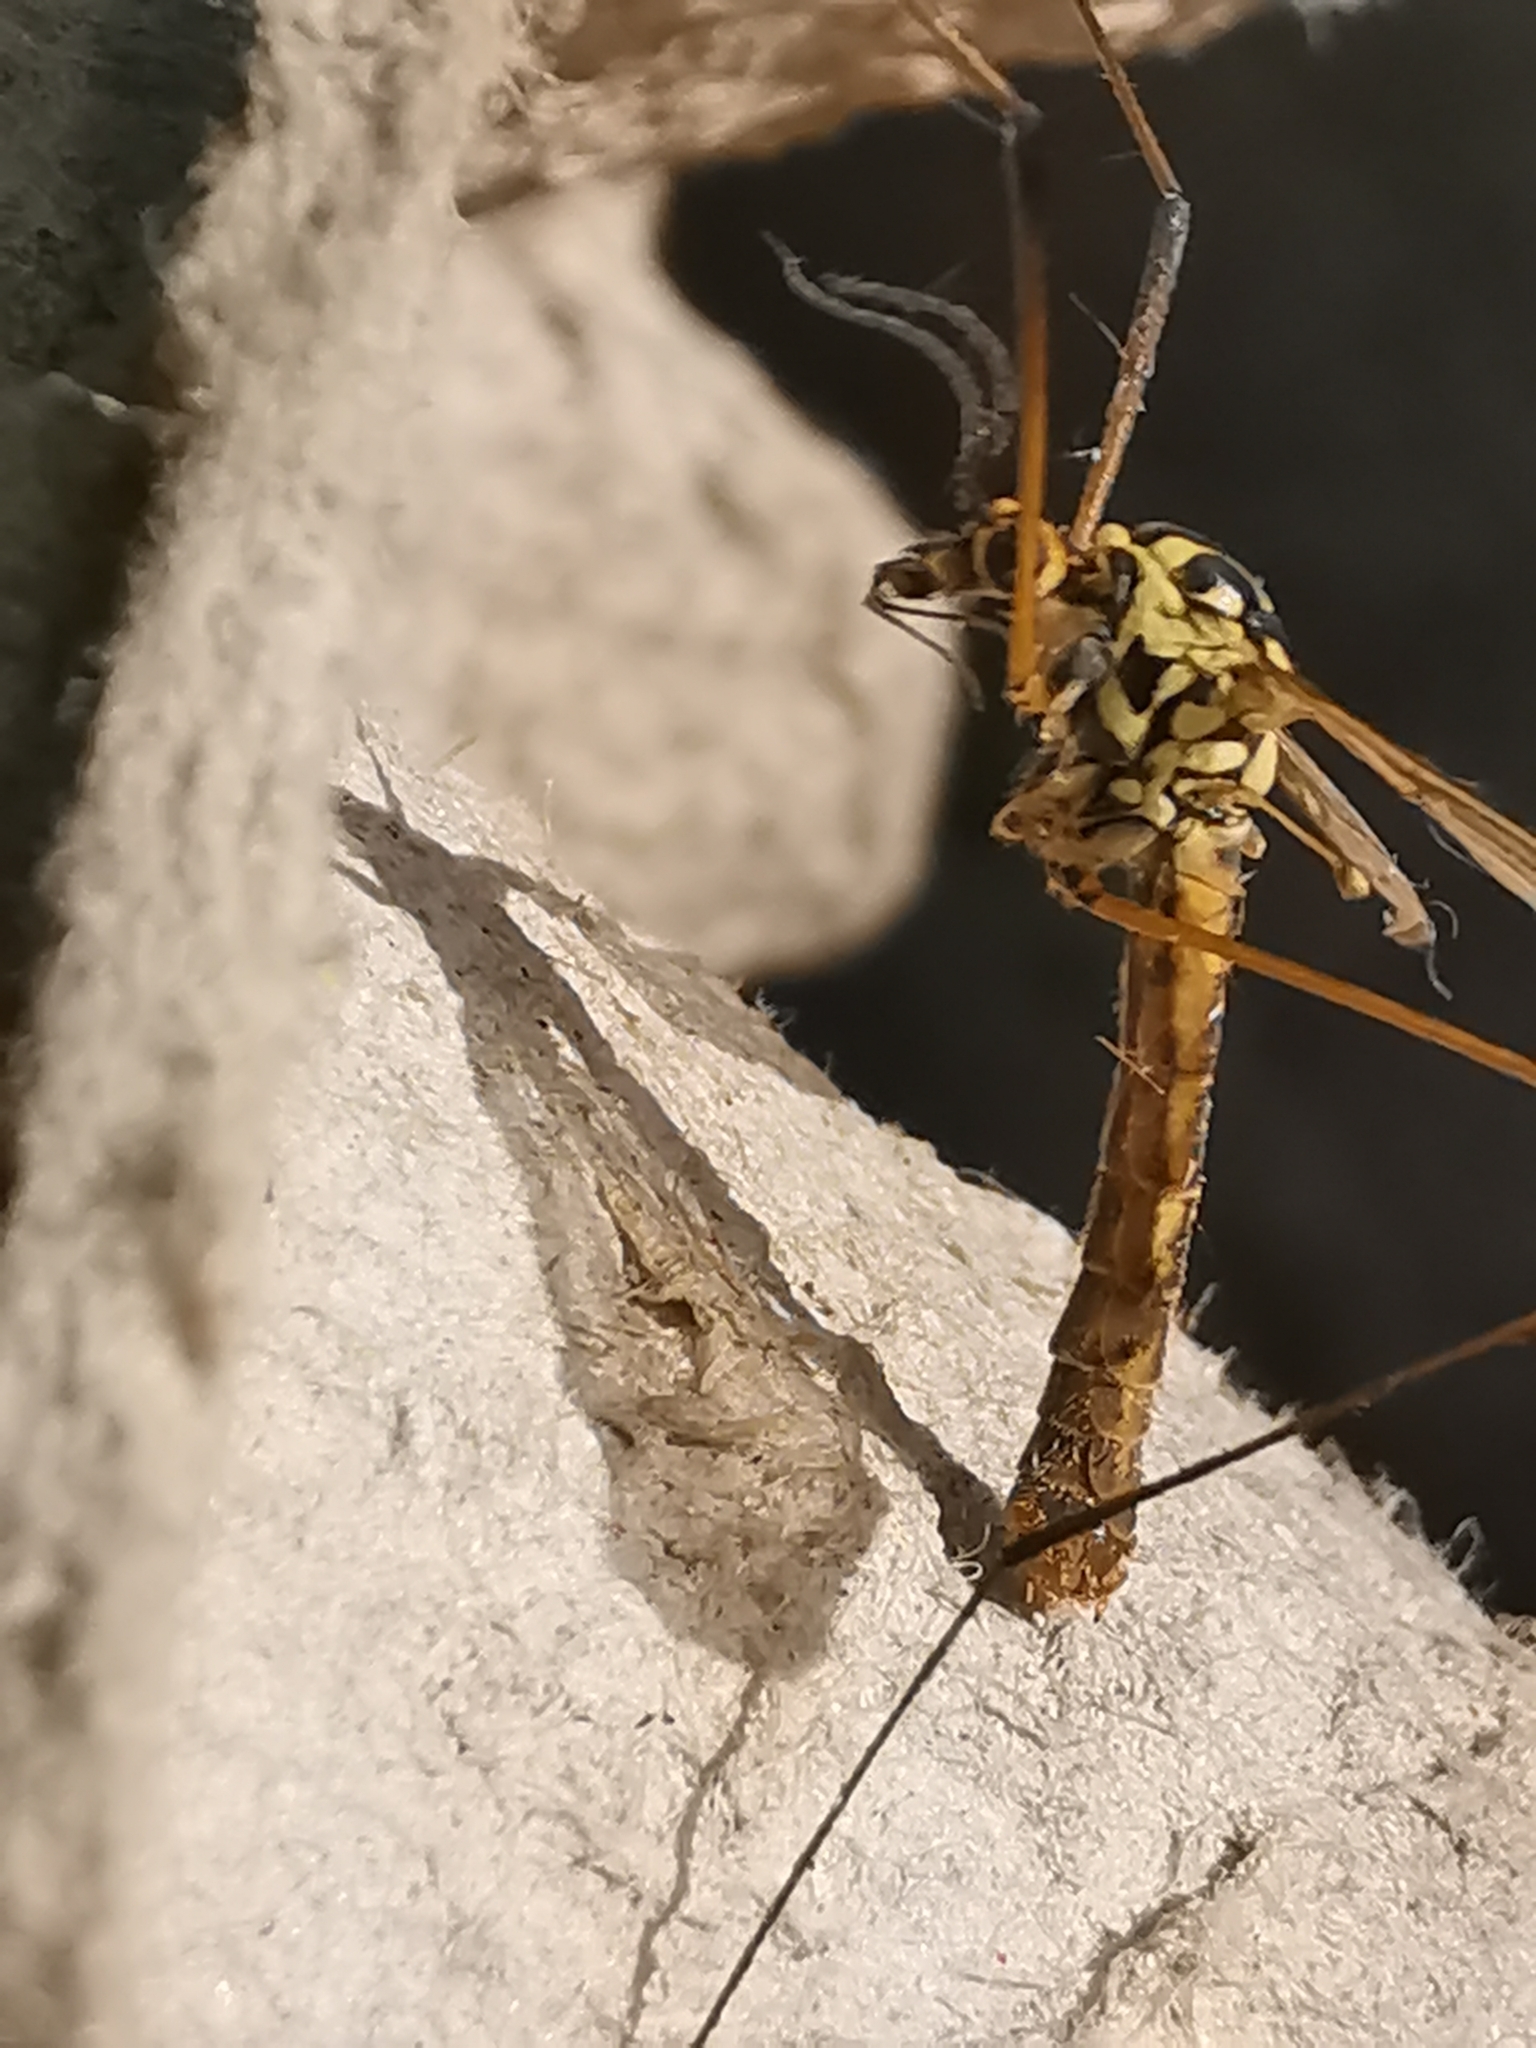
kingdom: Animalia
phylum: Arthropoda
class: Insecta
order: Diptera
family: Tipulidae
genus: Nephrotoma
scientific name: Nephrotoma appendiculata
